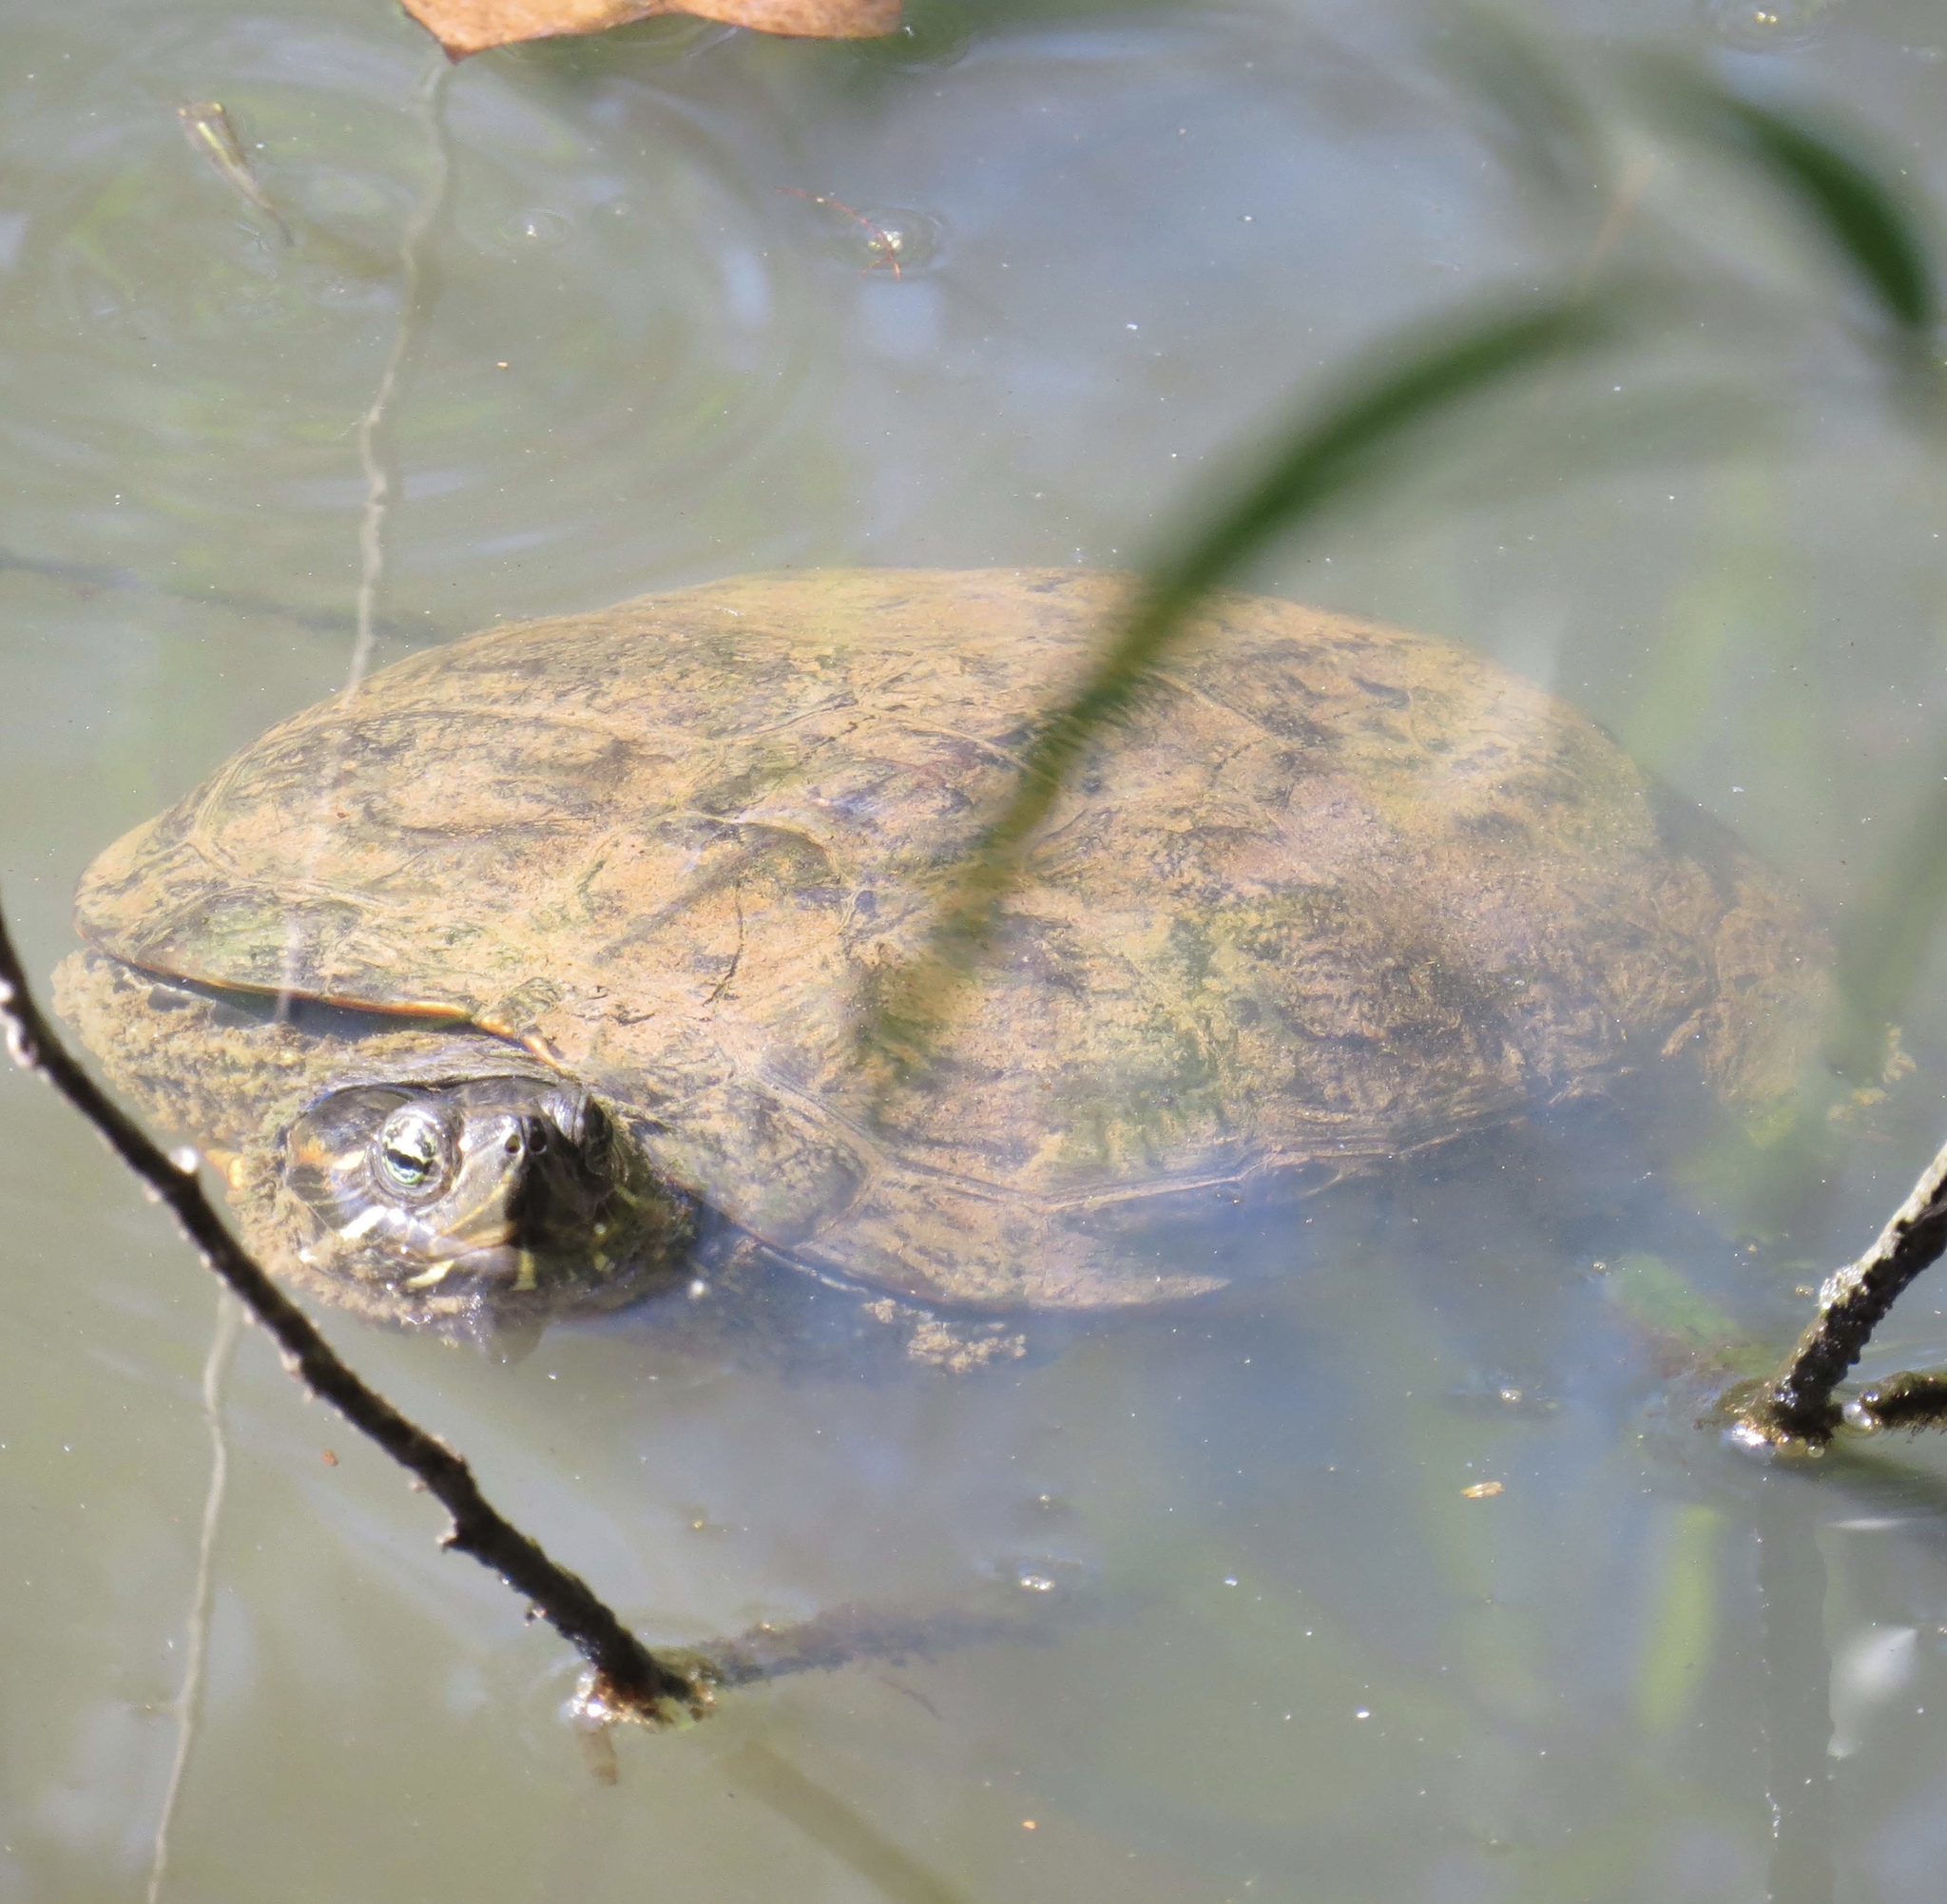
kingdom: Animalia
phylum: Chordata
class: Testudines
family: Emydidae
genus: Trachemys
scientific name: Trachemys scripta
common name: Slider
